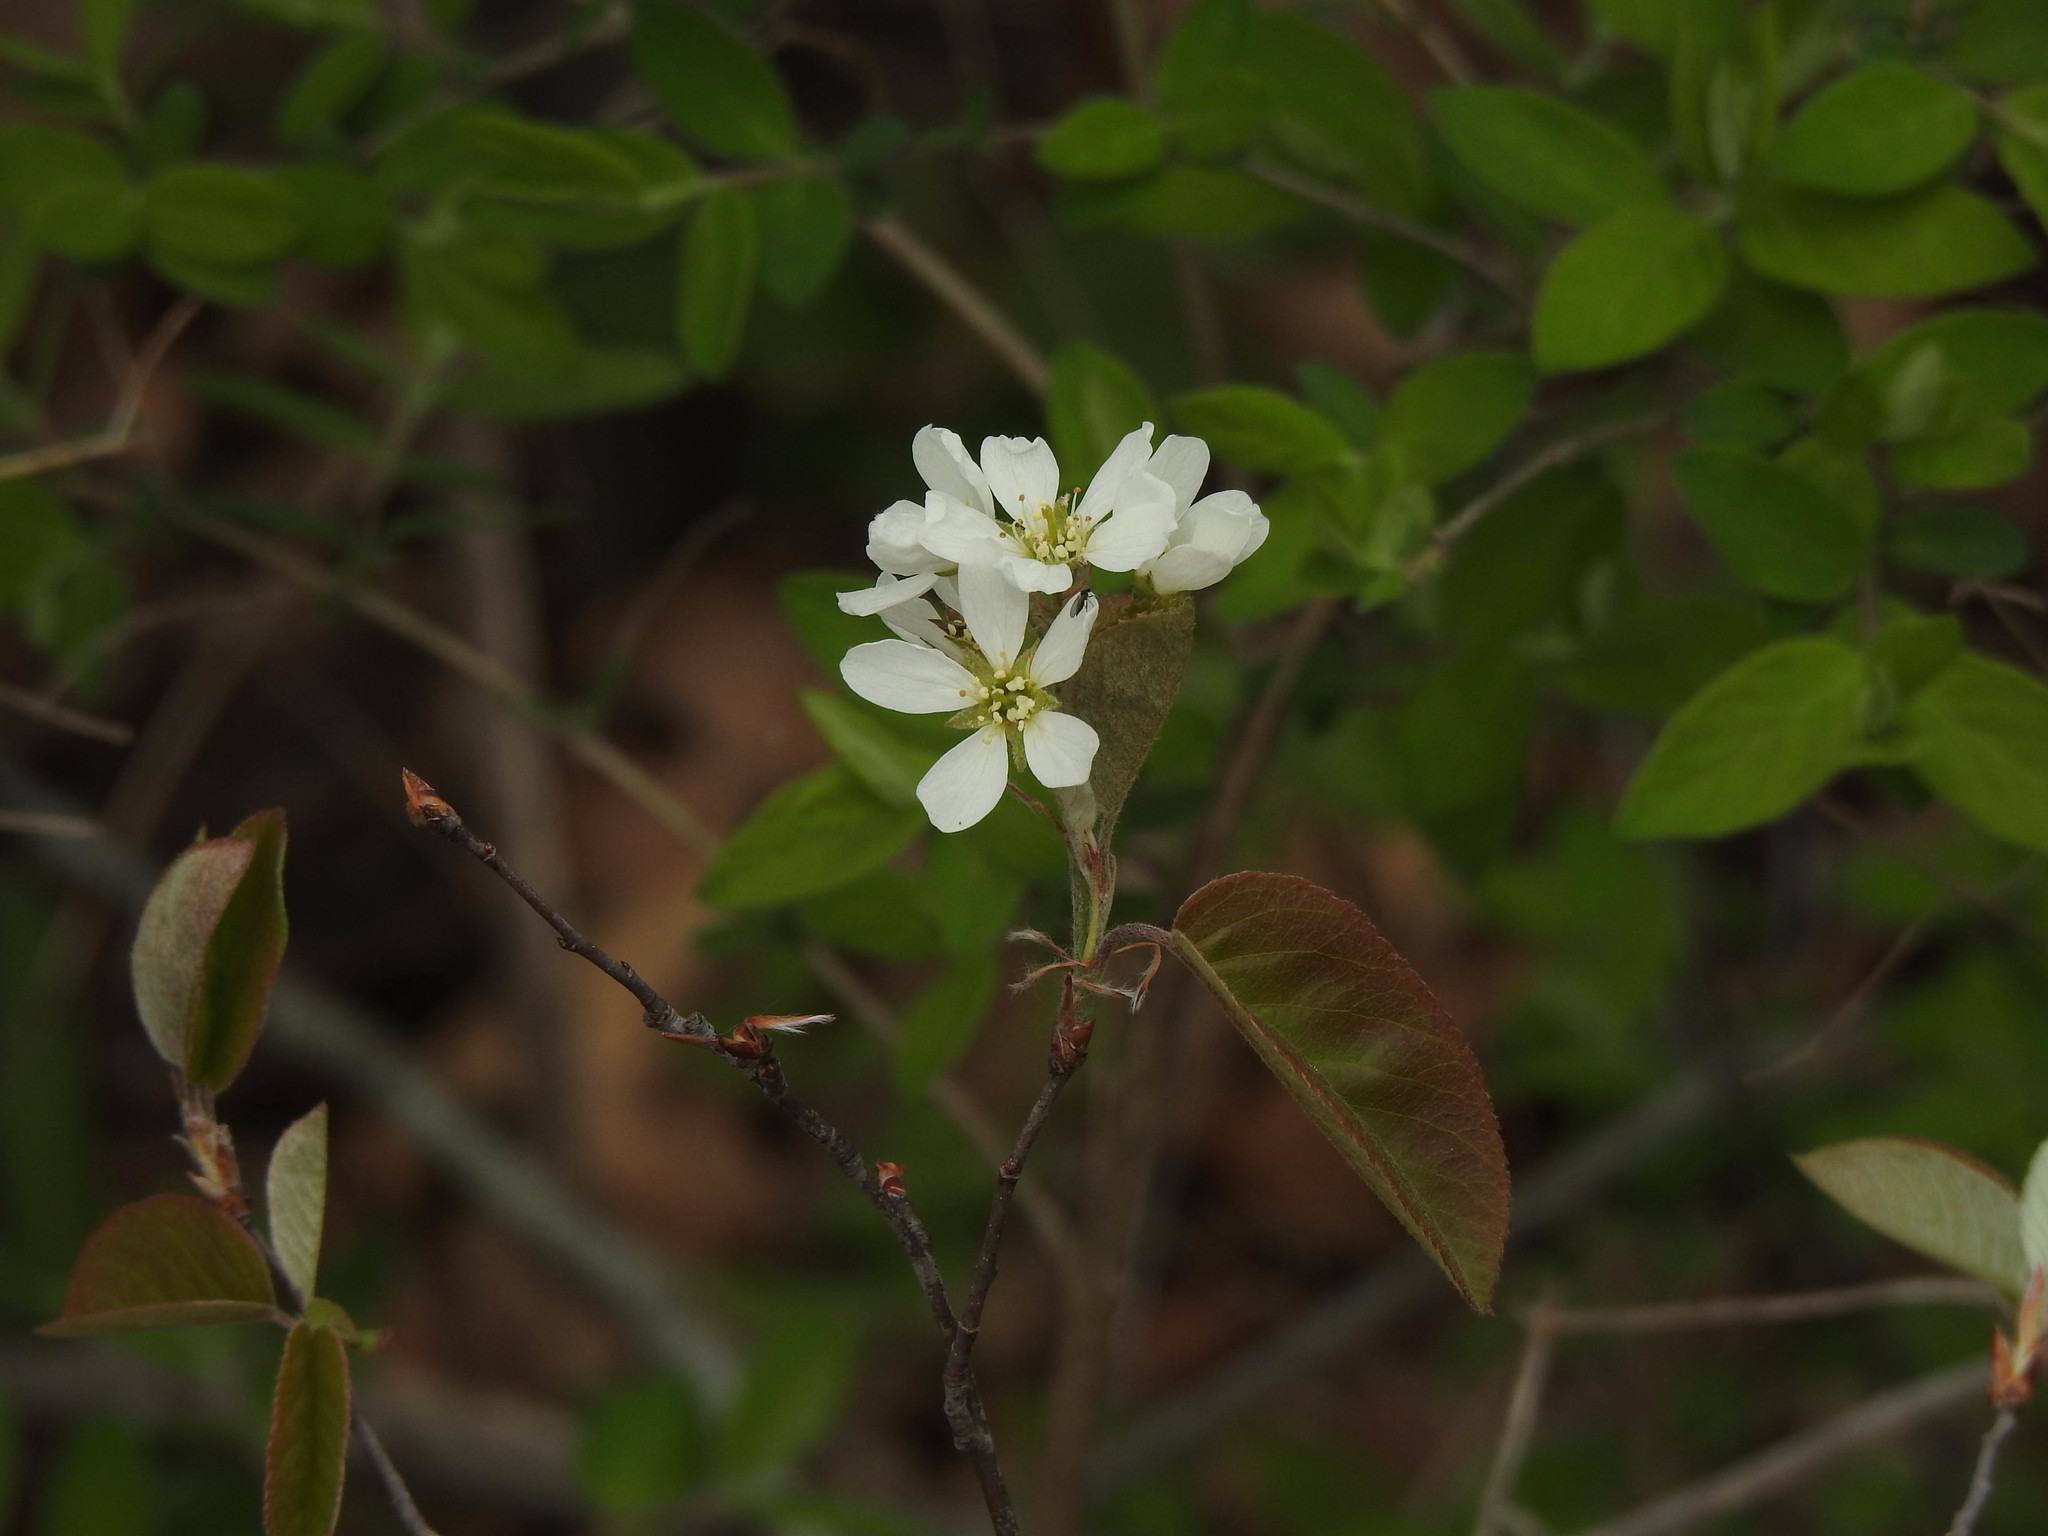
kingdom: Plantae
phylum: Tracheophyta
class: Magnoliopsida
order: Rosales
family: Rosaceae
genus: Amelanchier
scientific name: Amelanchier arborea
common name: Downy serviceberry
